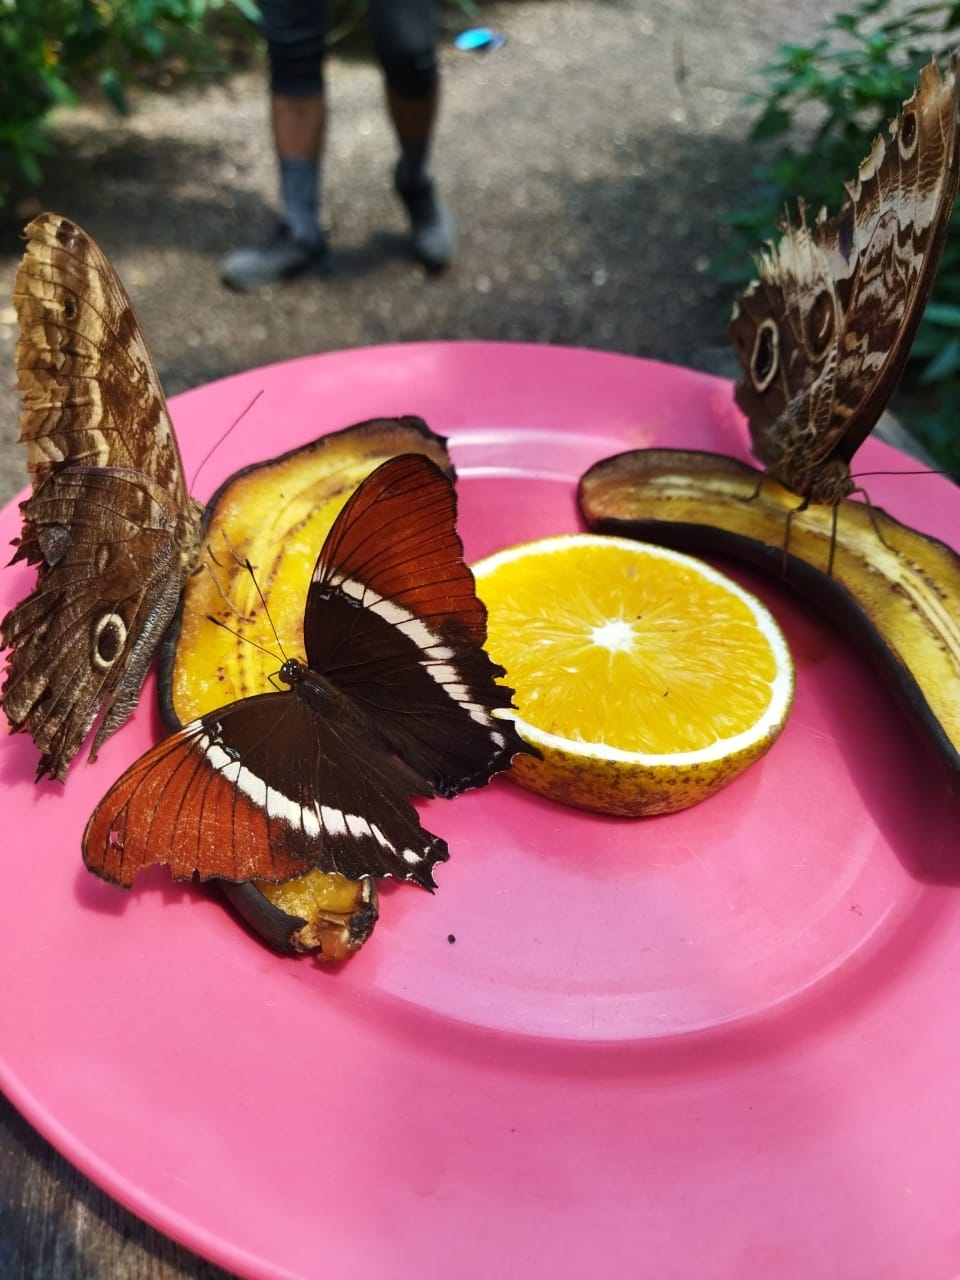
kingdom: Animalia
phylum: Arthropoda
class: Insecta
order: Lepidoptera
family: Nymphalidae
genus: Siproeta
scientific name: Siproeta epaphus
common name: Rusty-tipped page
